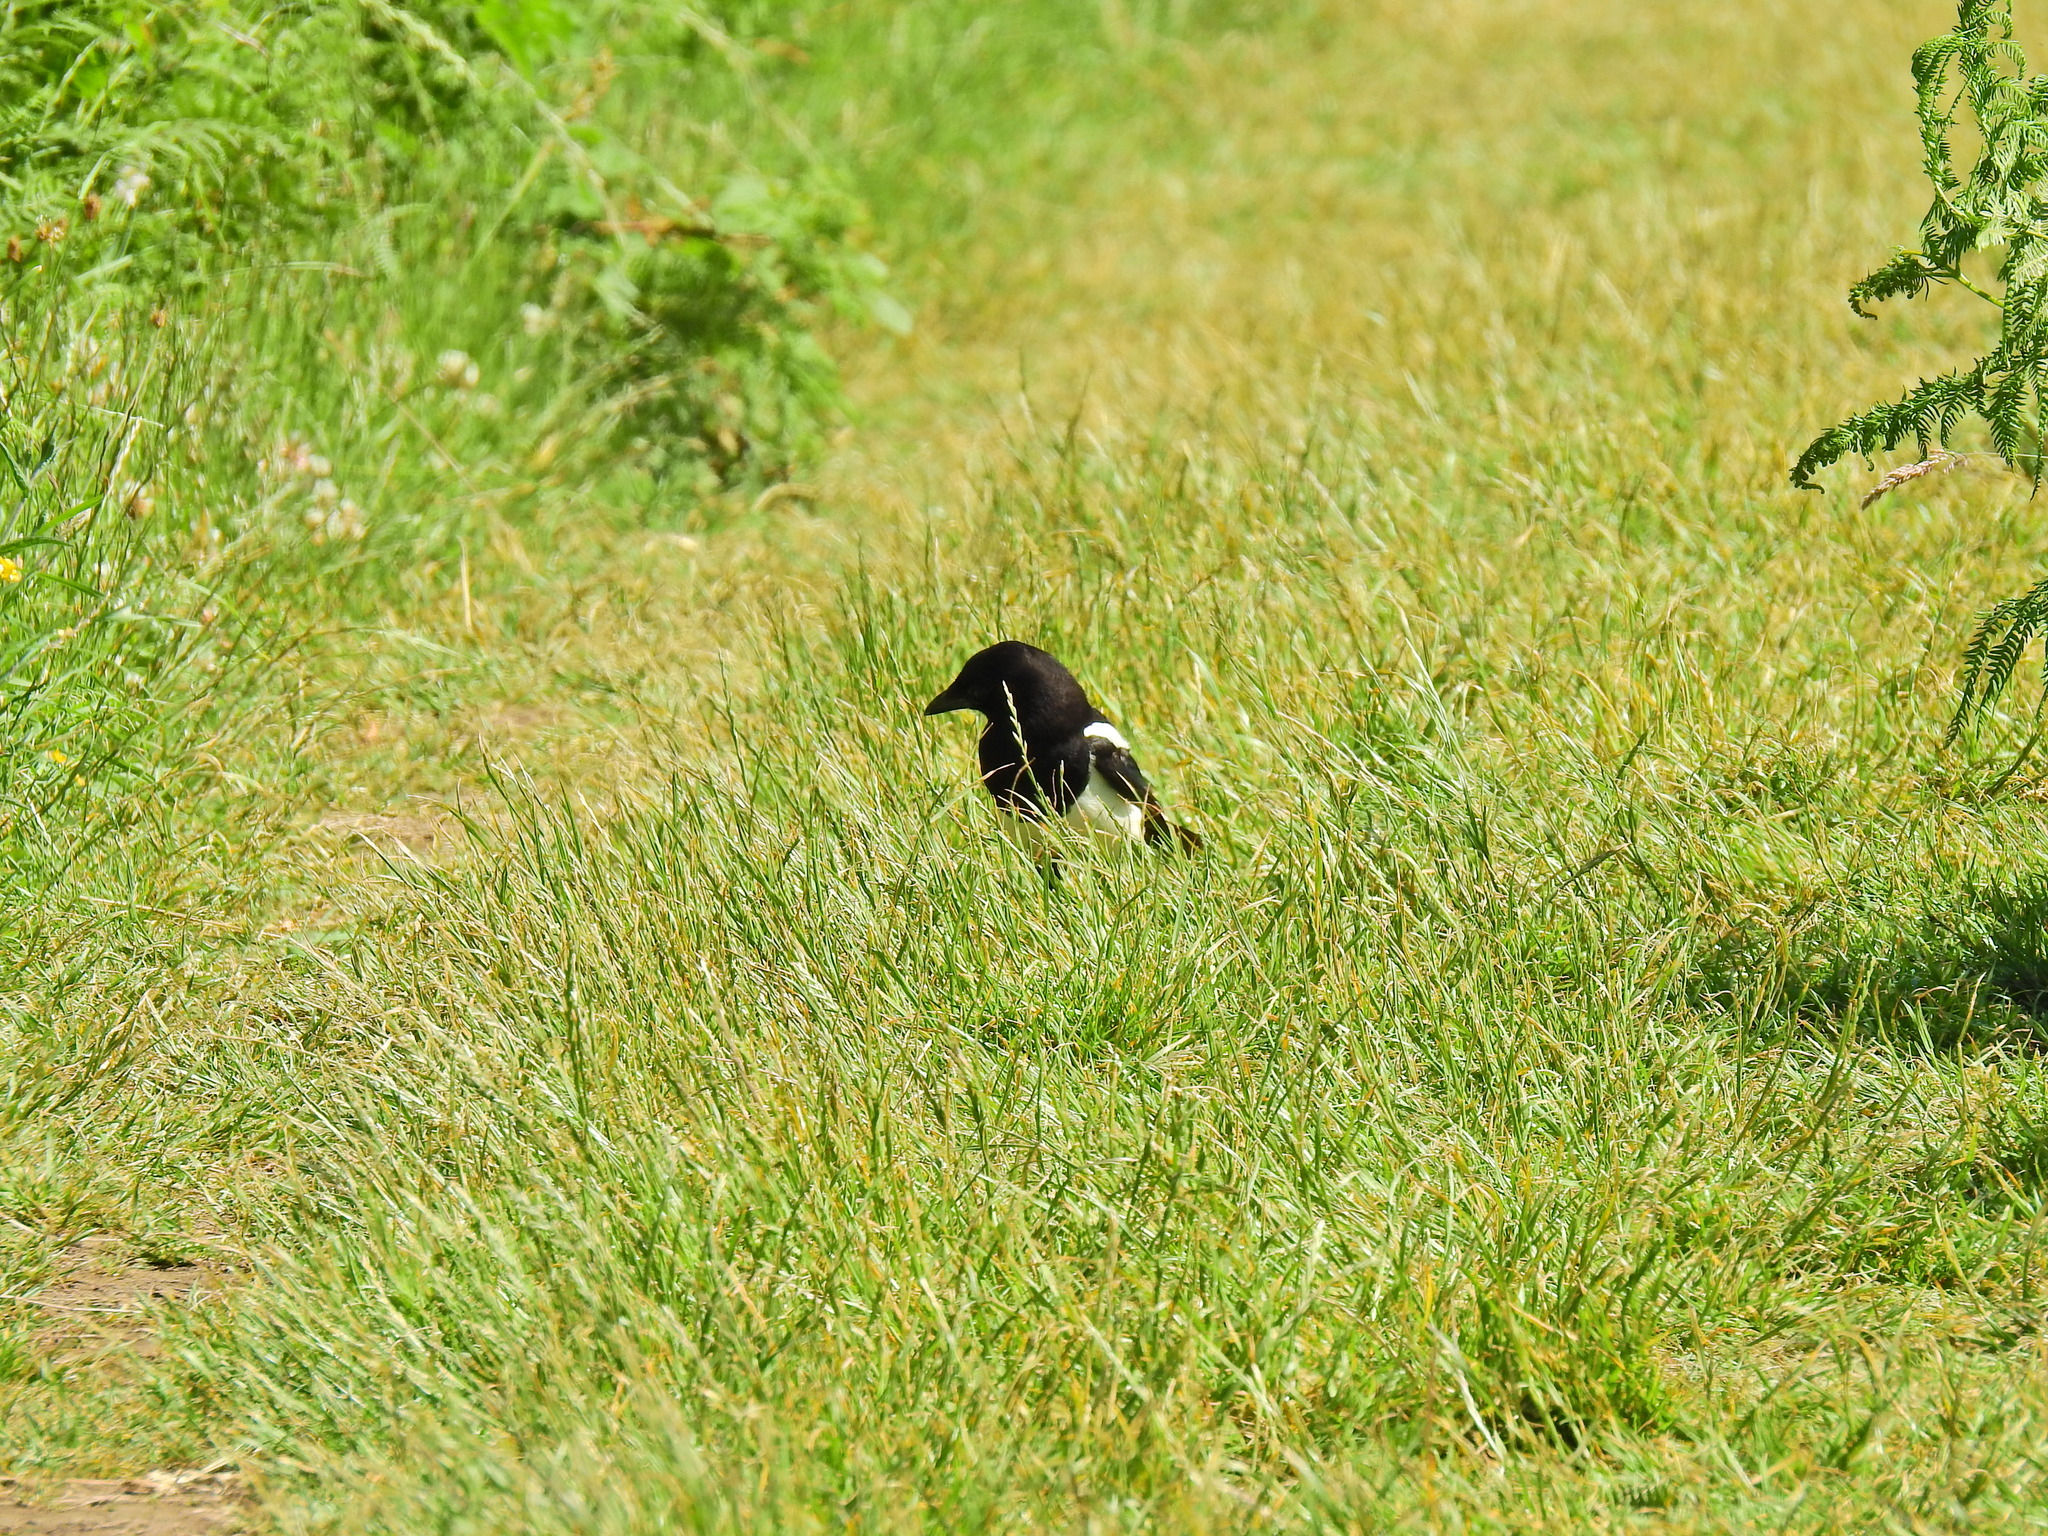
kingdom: Animalia
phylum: Chordata
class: Aves
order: Passeriformes
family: Corvidae
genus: Pica
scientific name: Pica pica
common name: Eurasian magpie
